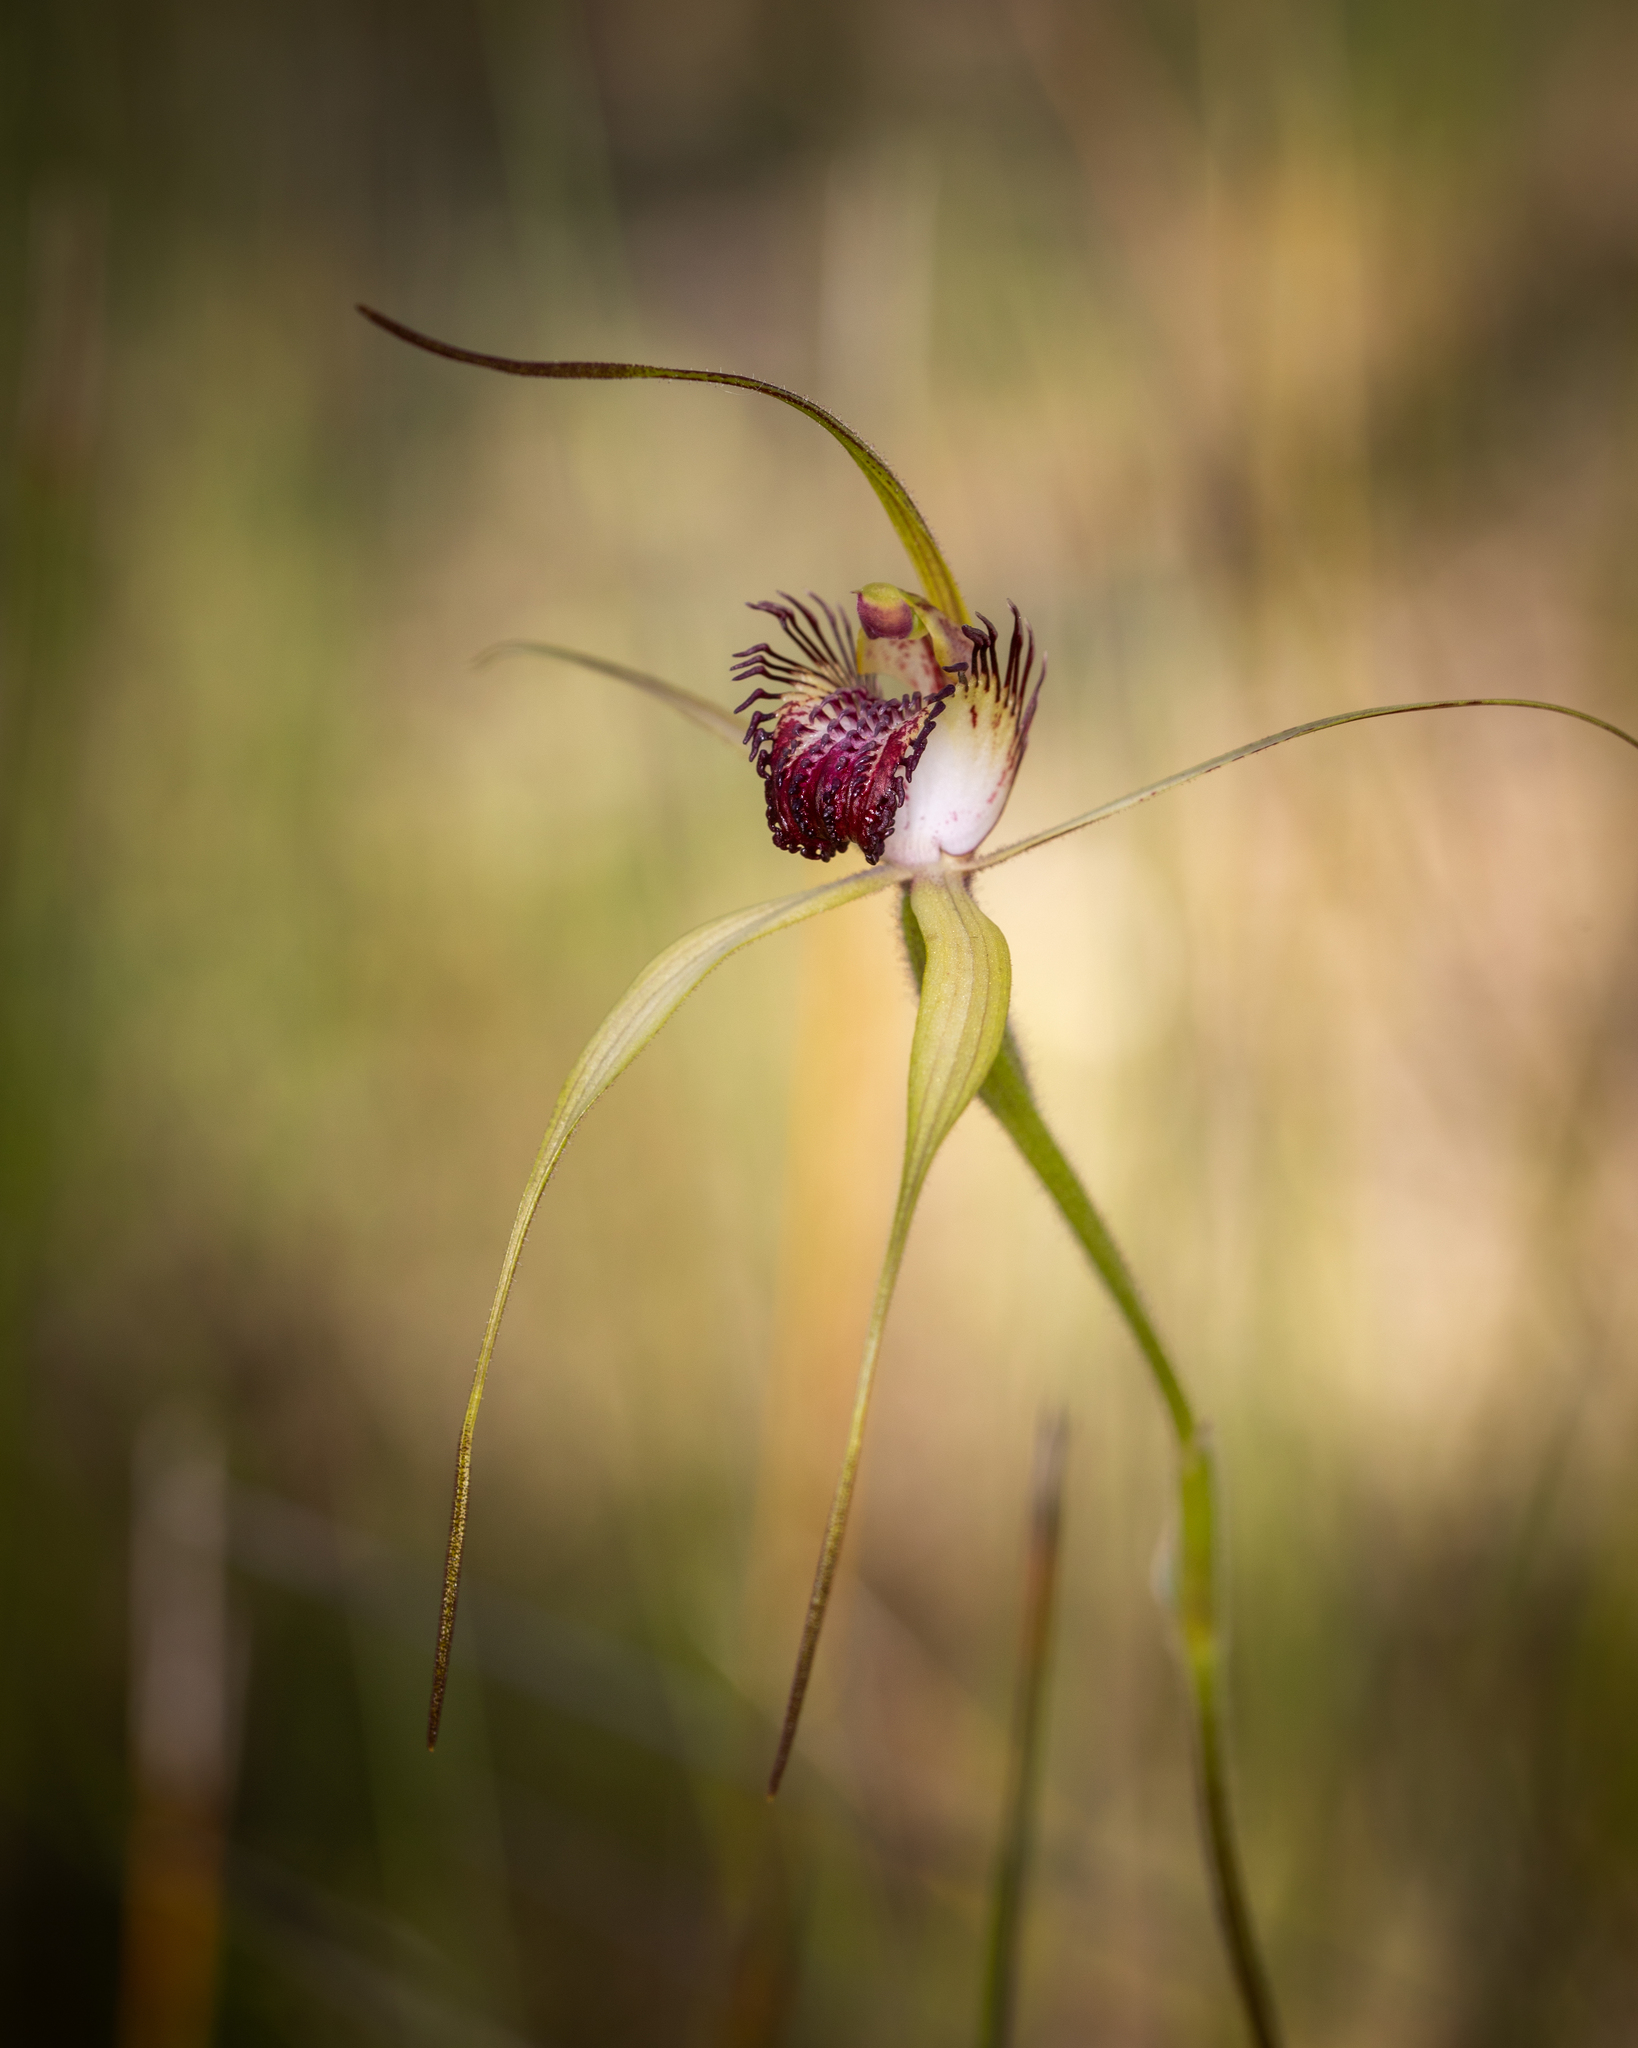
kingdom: Plantae
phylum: Tracheophyta
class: Liliopsida
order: Asparagales
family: Orchidaceae
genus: Caladenia
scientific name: Caladenia paludosa
